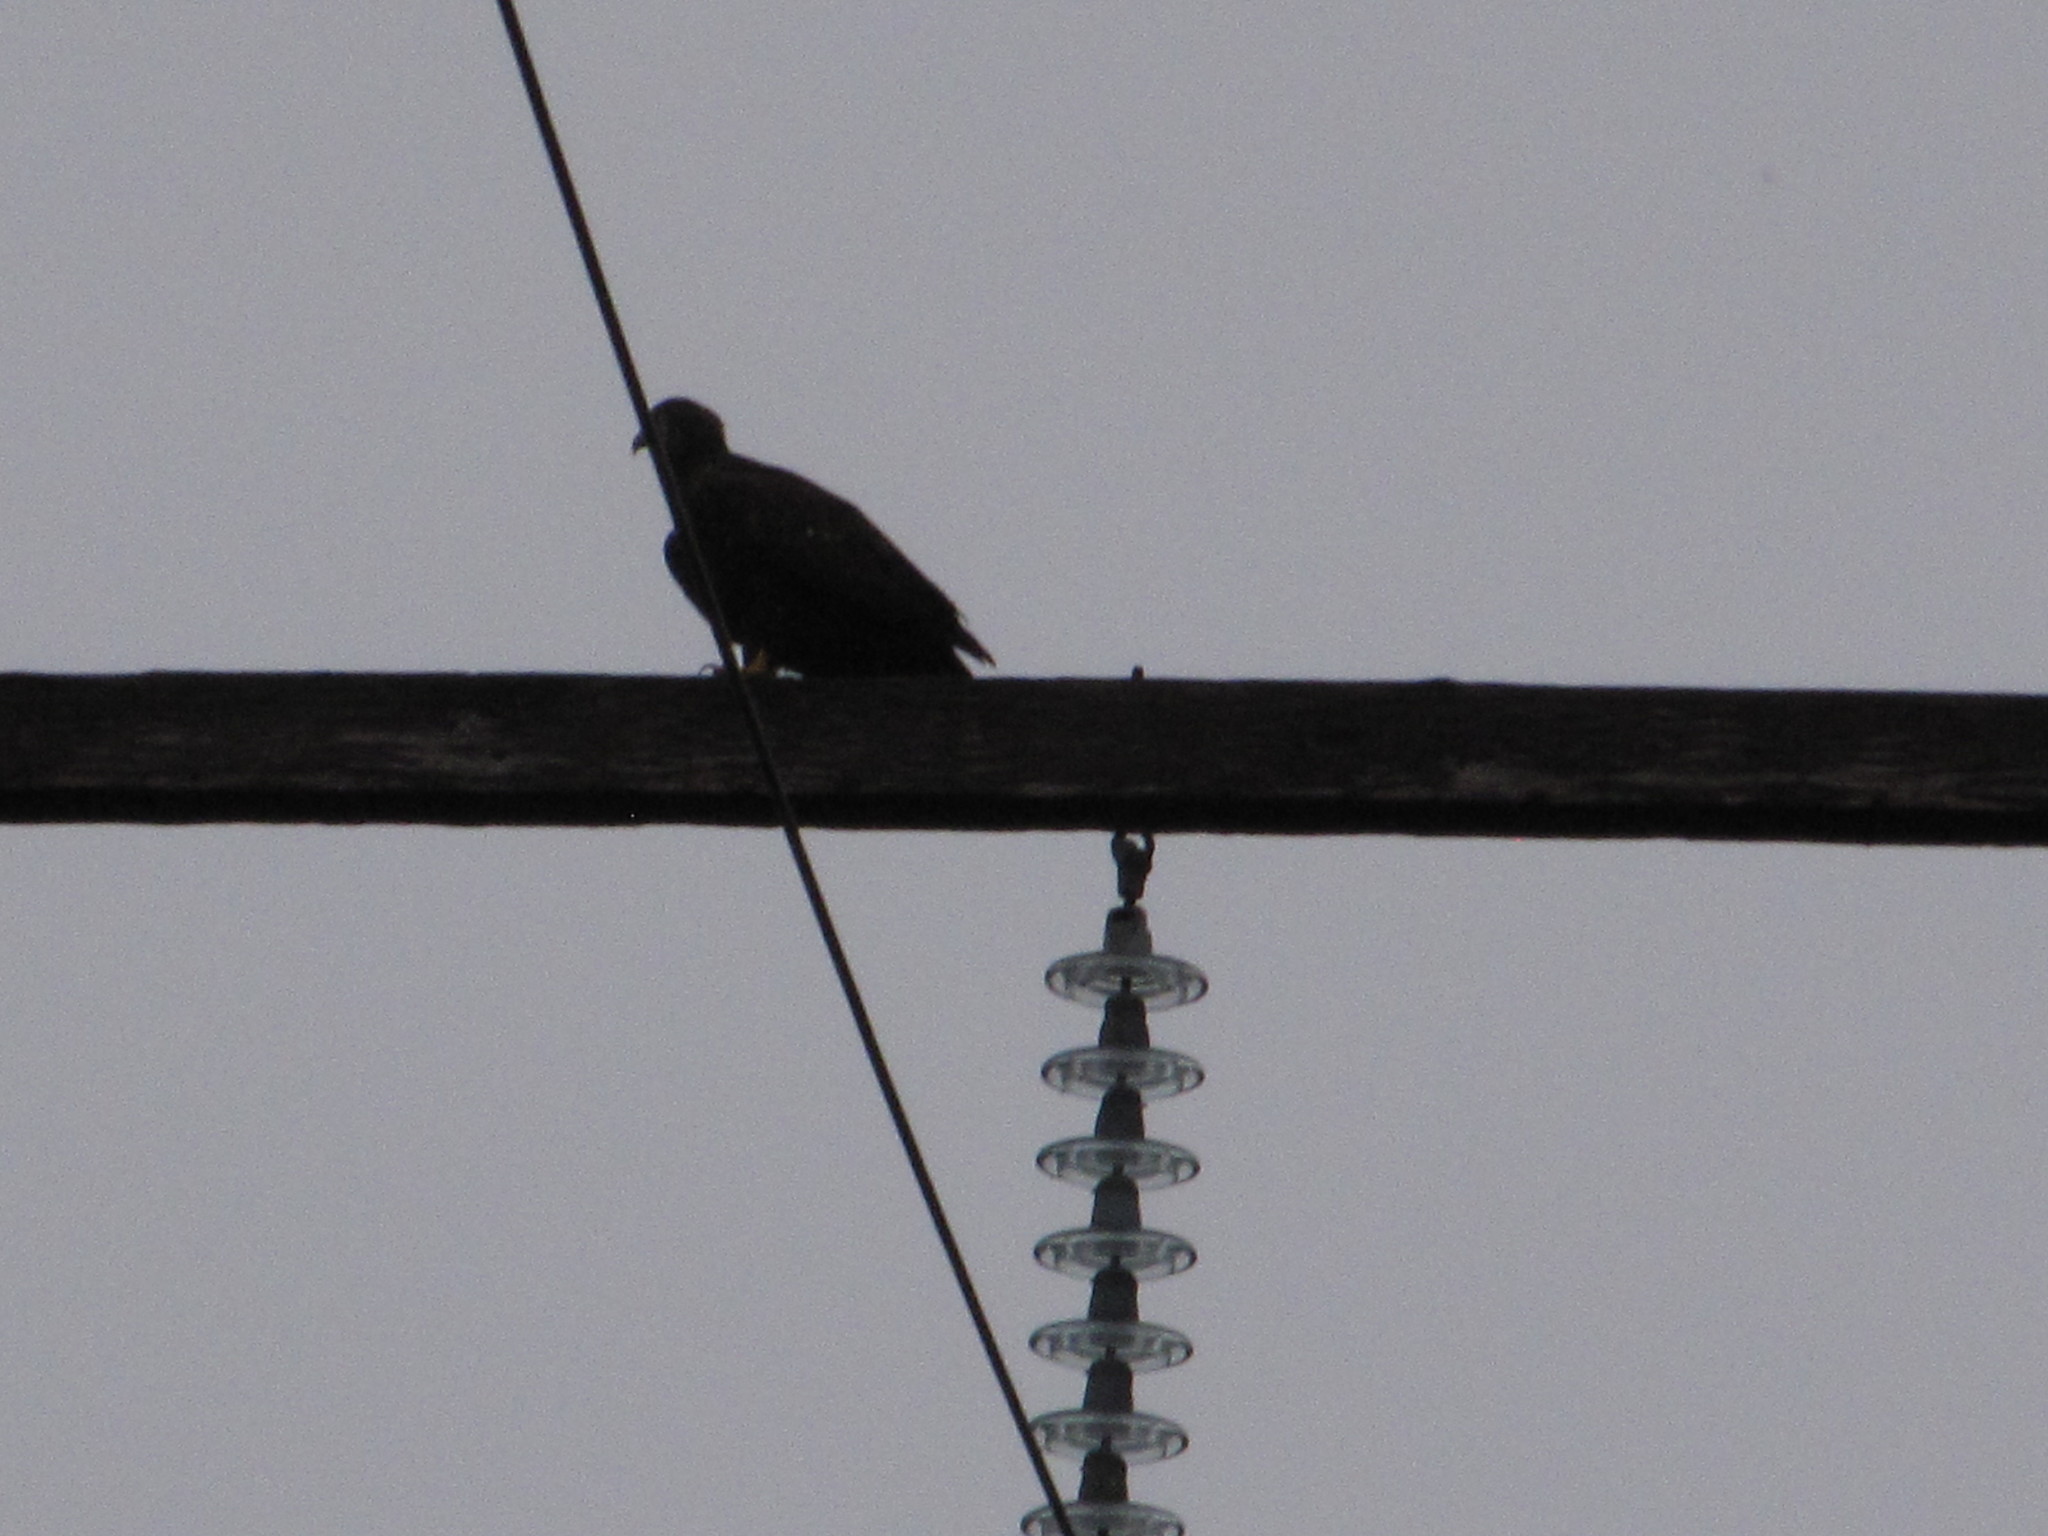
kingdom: Animalia
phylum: Chordata
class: Aves
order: Accipitriformes
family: Accipitridae
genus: Haliaeetus
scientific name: Haliaeetus leucocephalus
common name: Bald eagle
